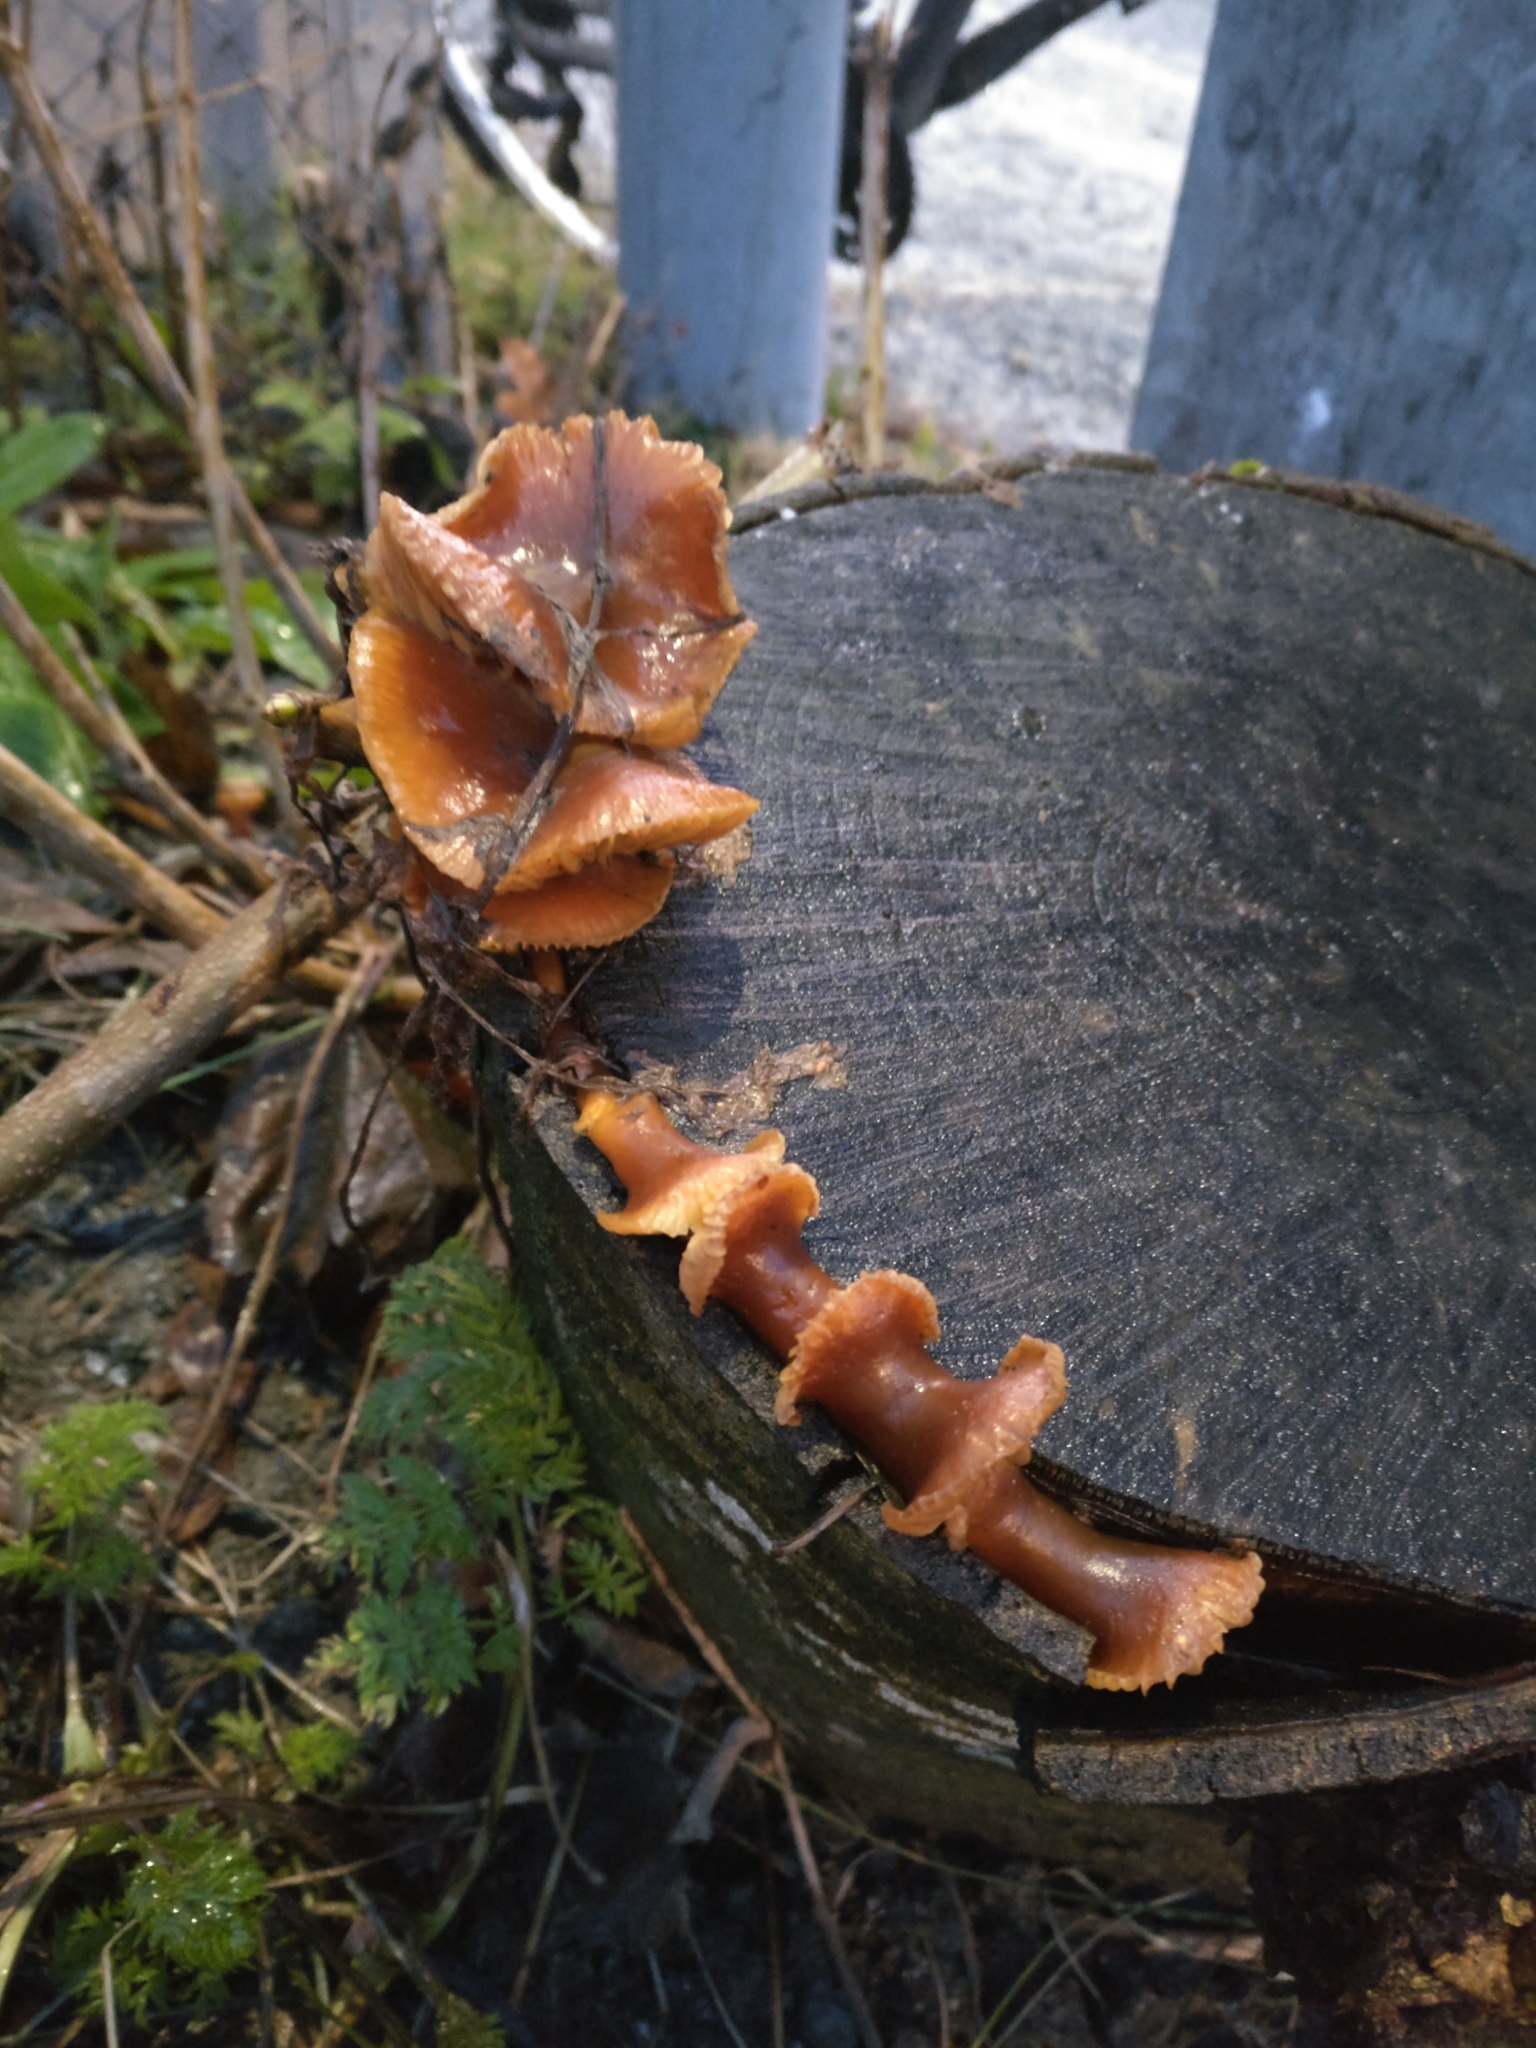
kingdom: Fungi
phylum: Basidiomycota
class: Agaricomycetes
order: Agaricales
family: Physalacriaceae
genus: Flammulina
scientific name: Flammulina
